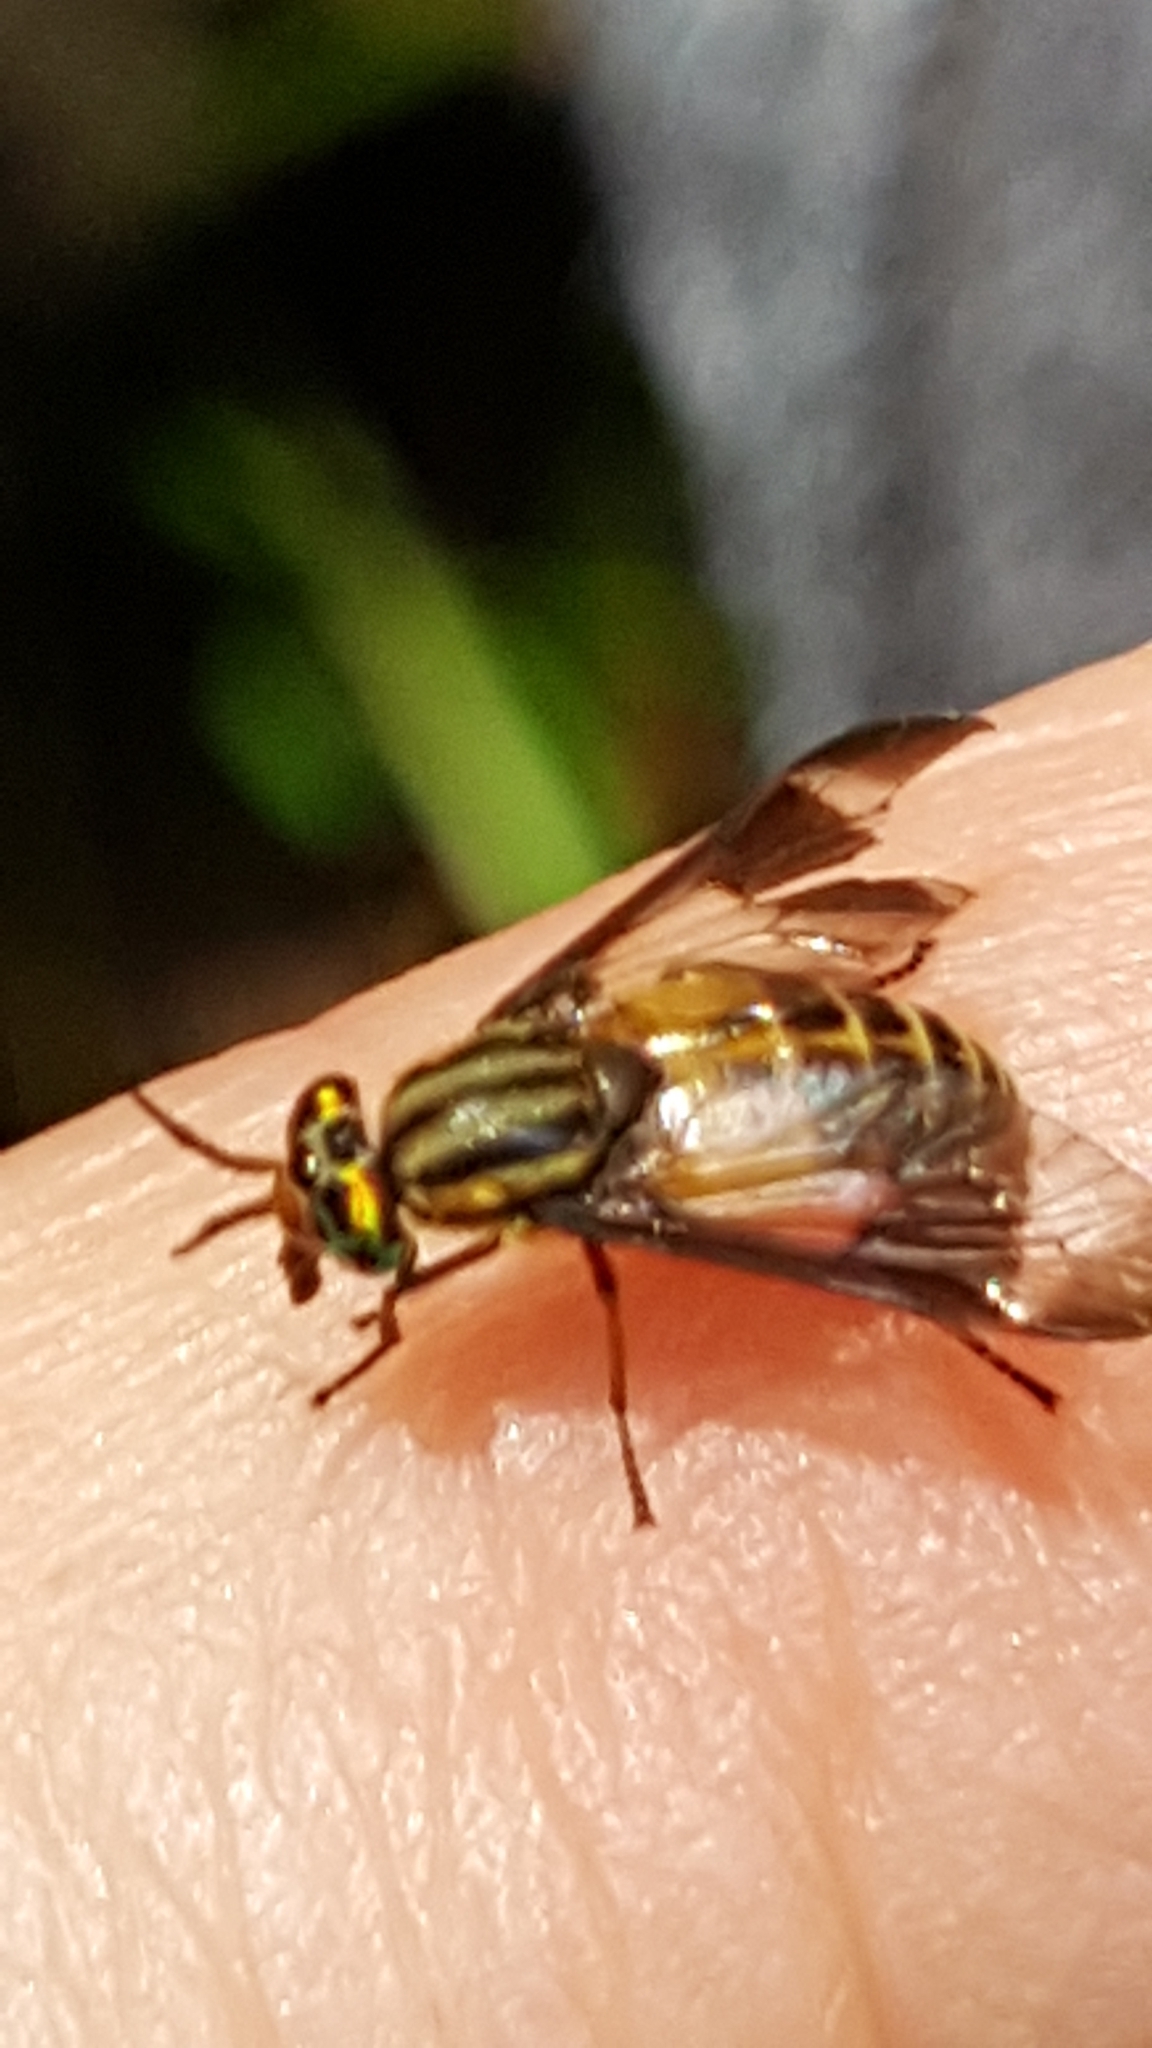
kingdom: Animalia
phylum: Arthropoda
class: Insecta
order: Diptera
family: Tabanidae
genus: Chrysops
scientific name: Chrysops geminatus
